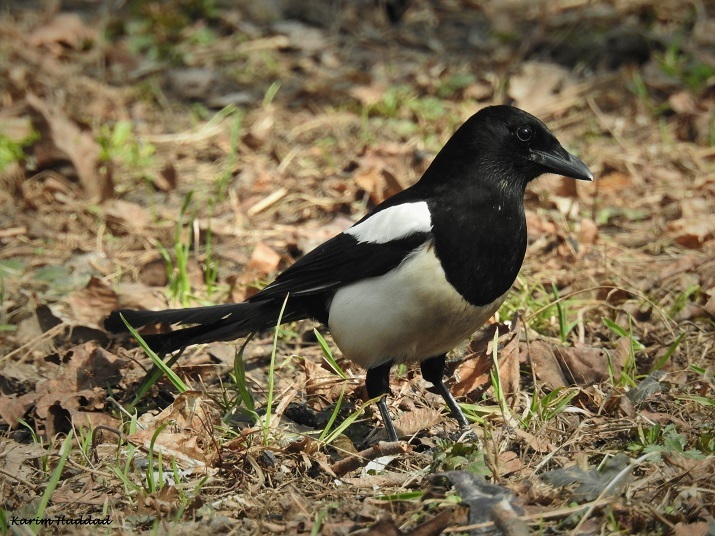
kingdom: Animalia
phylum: Chordata
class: Aves
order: Passeriformes
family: Corvidae
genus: Pica
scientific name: Pica pica
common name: Eurasian magpie
